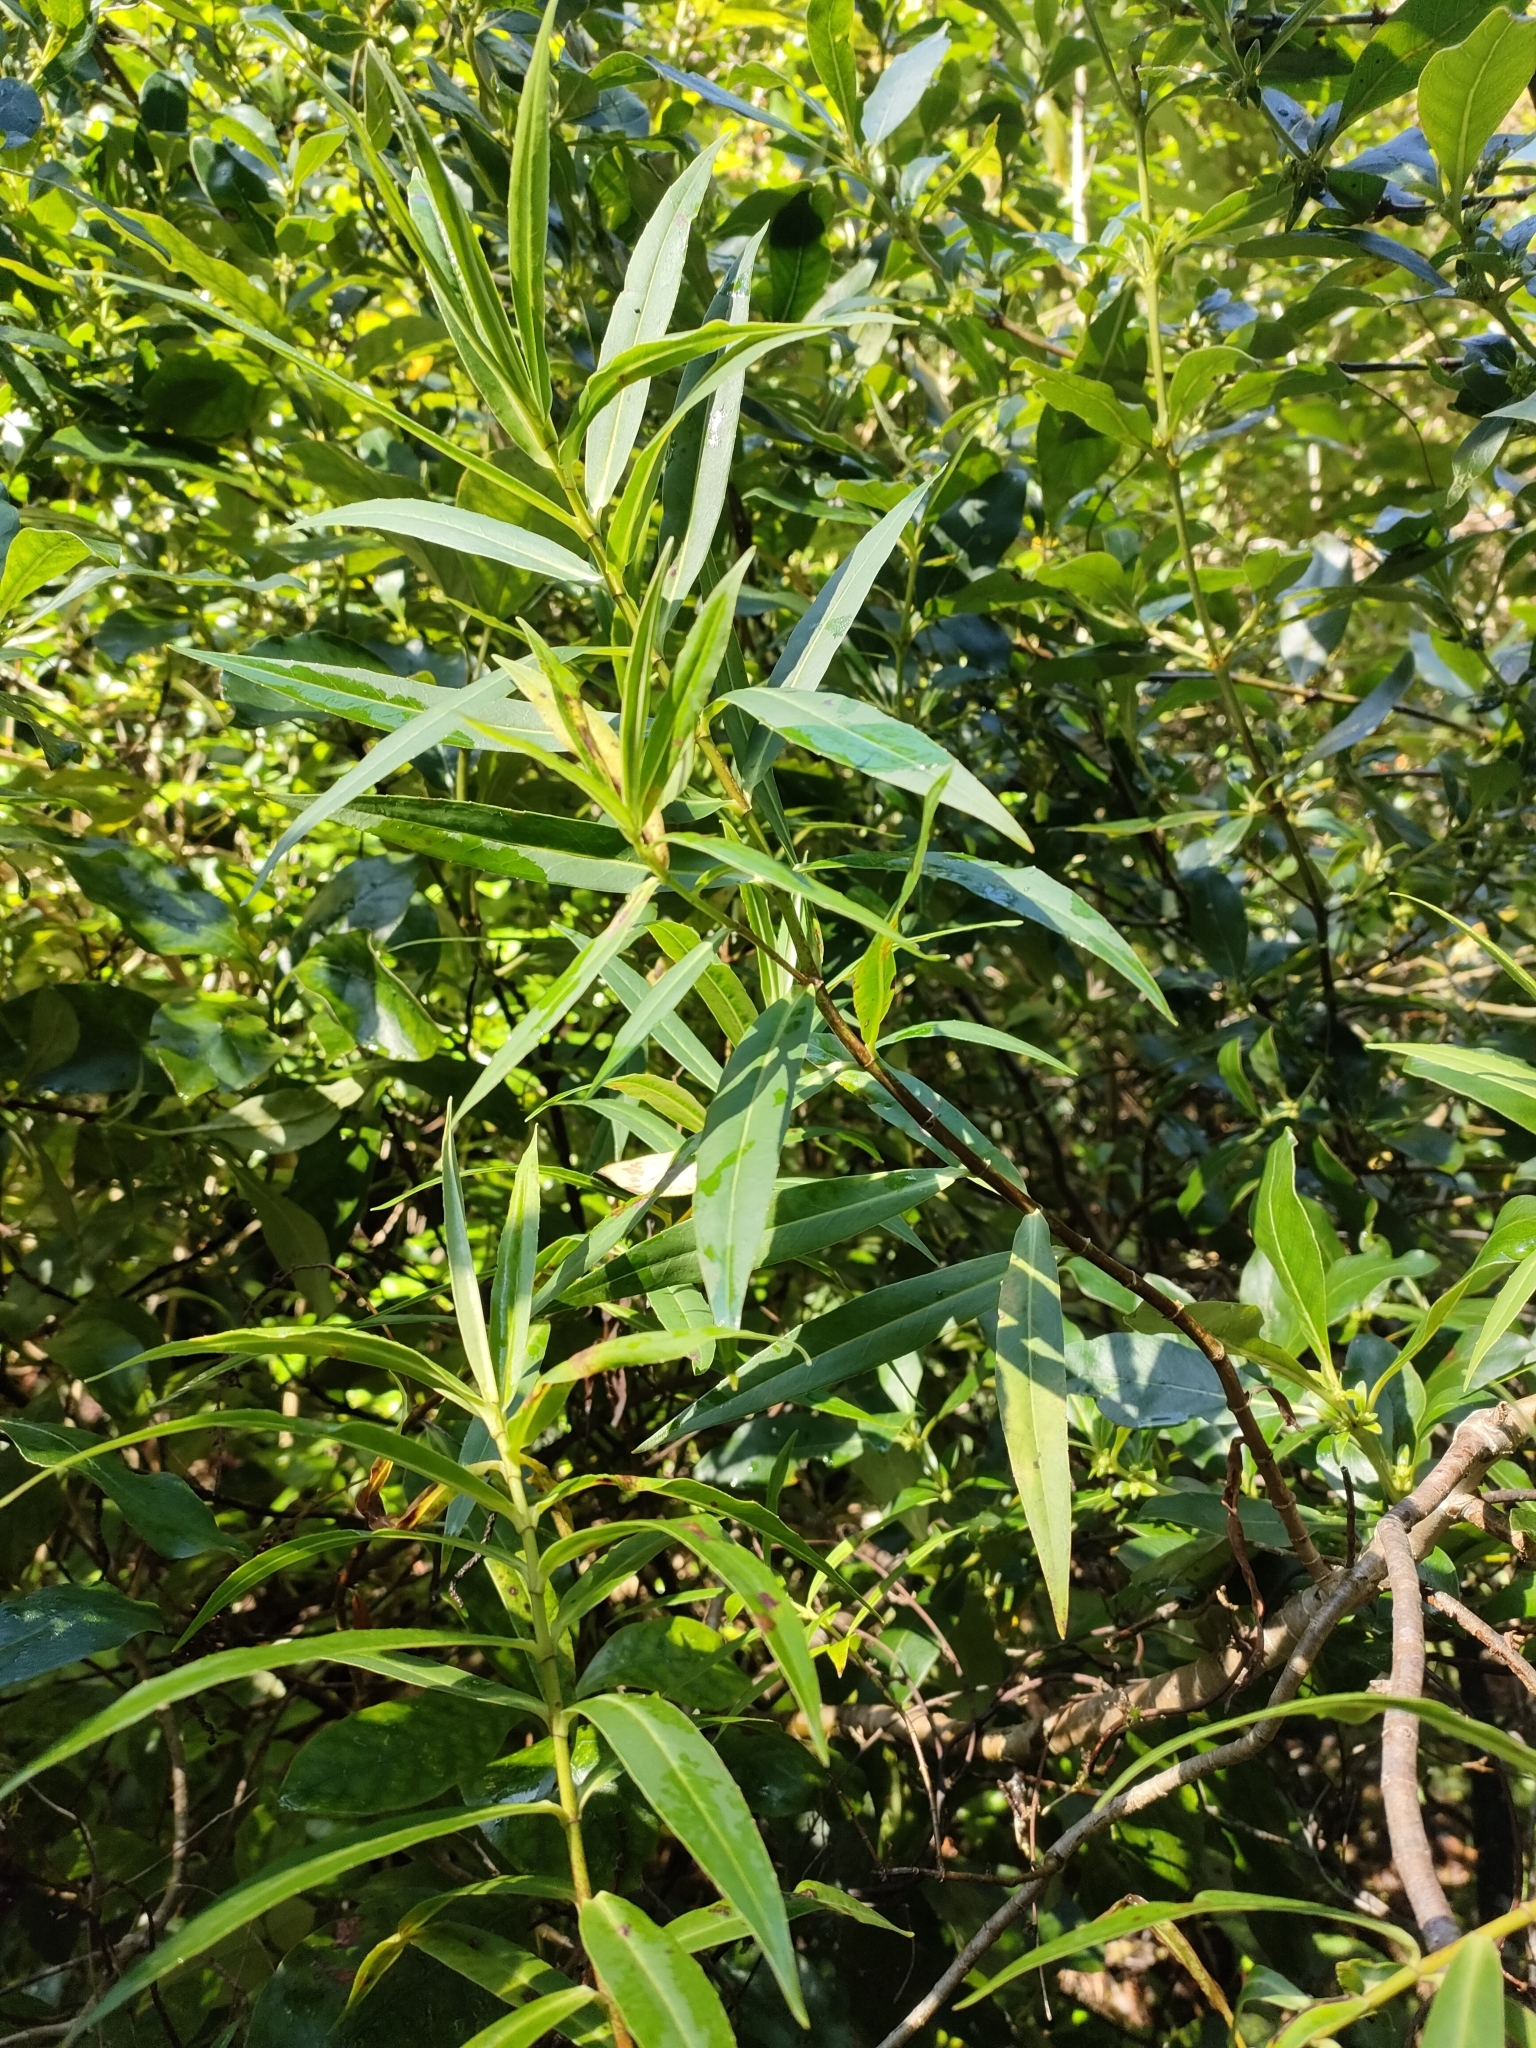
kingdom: Plantae
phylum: Tracheophyta
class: Magnoliopsida
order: Lamiales
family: Plantaginaceae
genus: Veronica
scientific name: Veronica salicifolia
